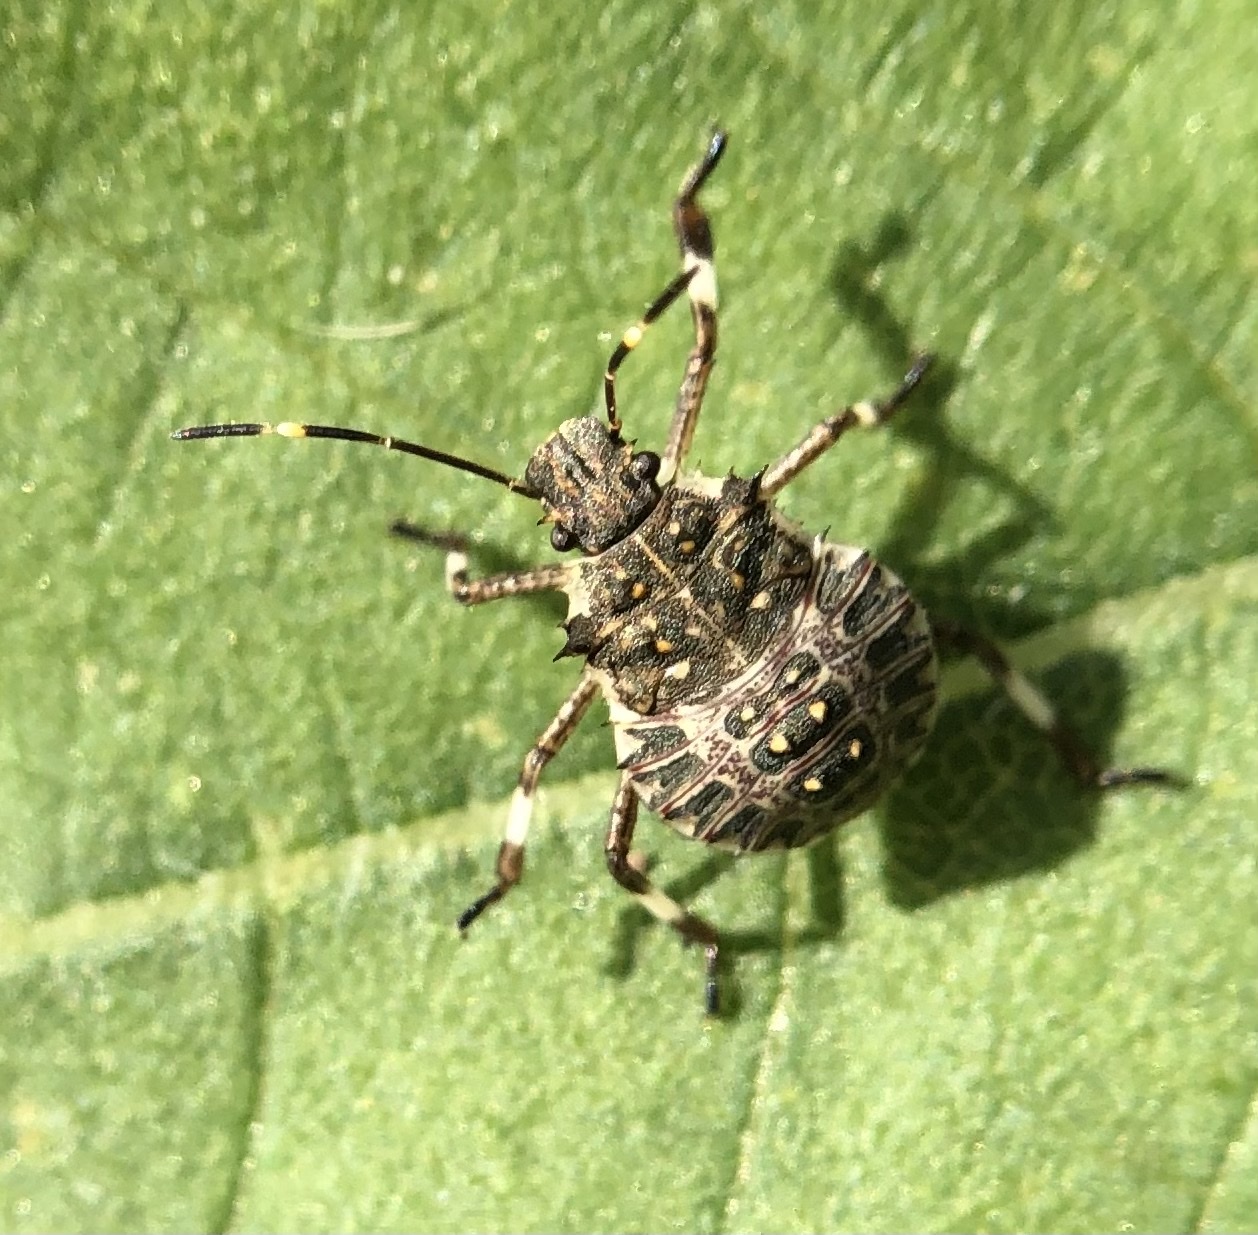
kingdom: Animalia
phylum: Arthropoda
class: Insecta
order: Hemiptera
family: Pentatomidae
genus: Halyomorpha
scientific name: Halyomorpha halys
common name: Brown marmorated stink bug
